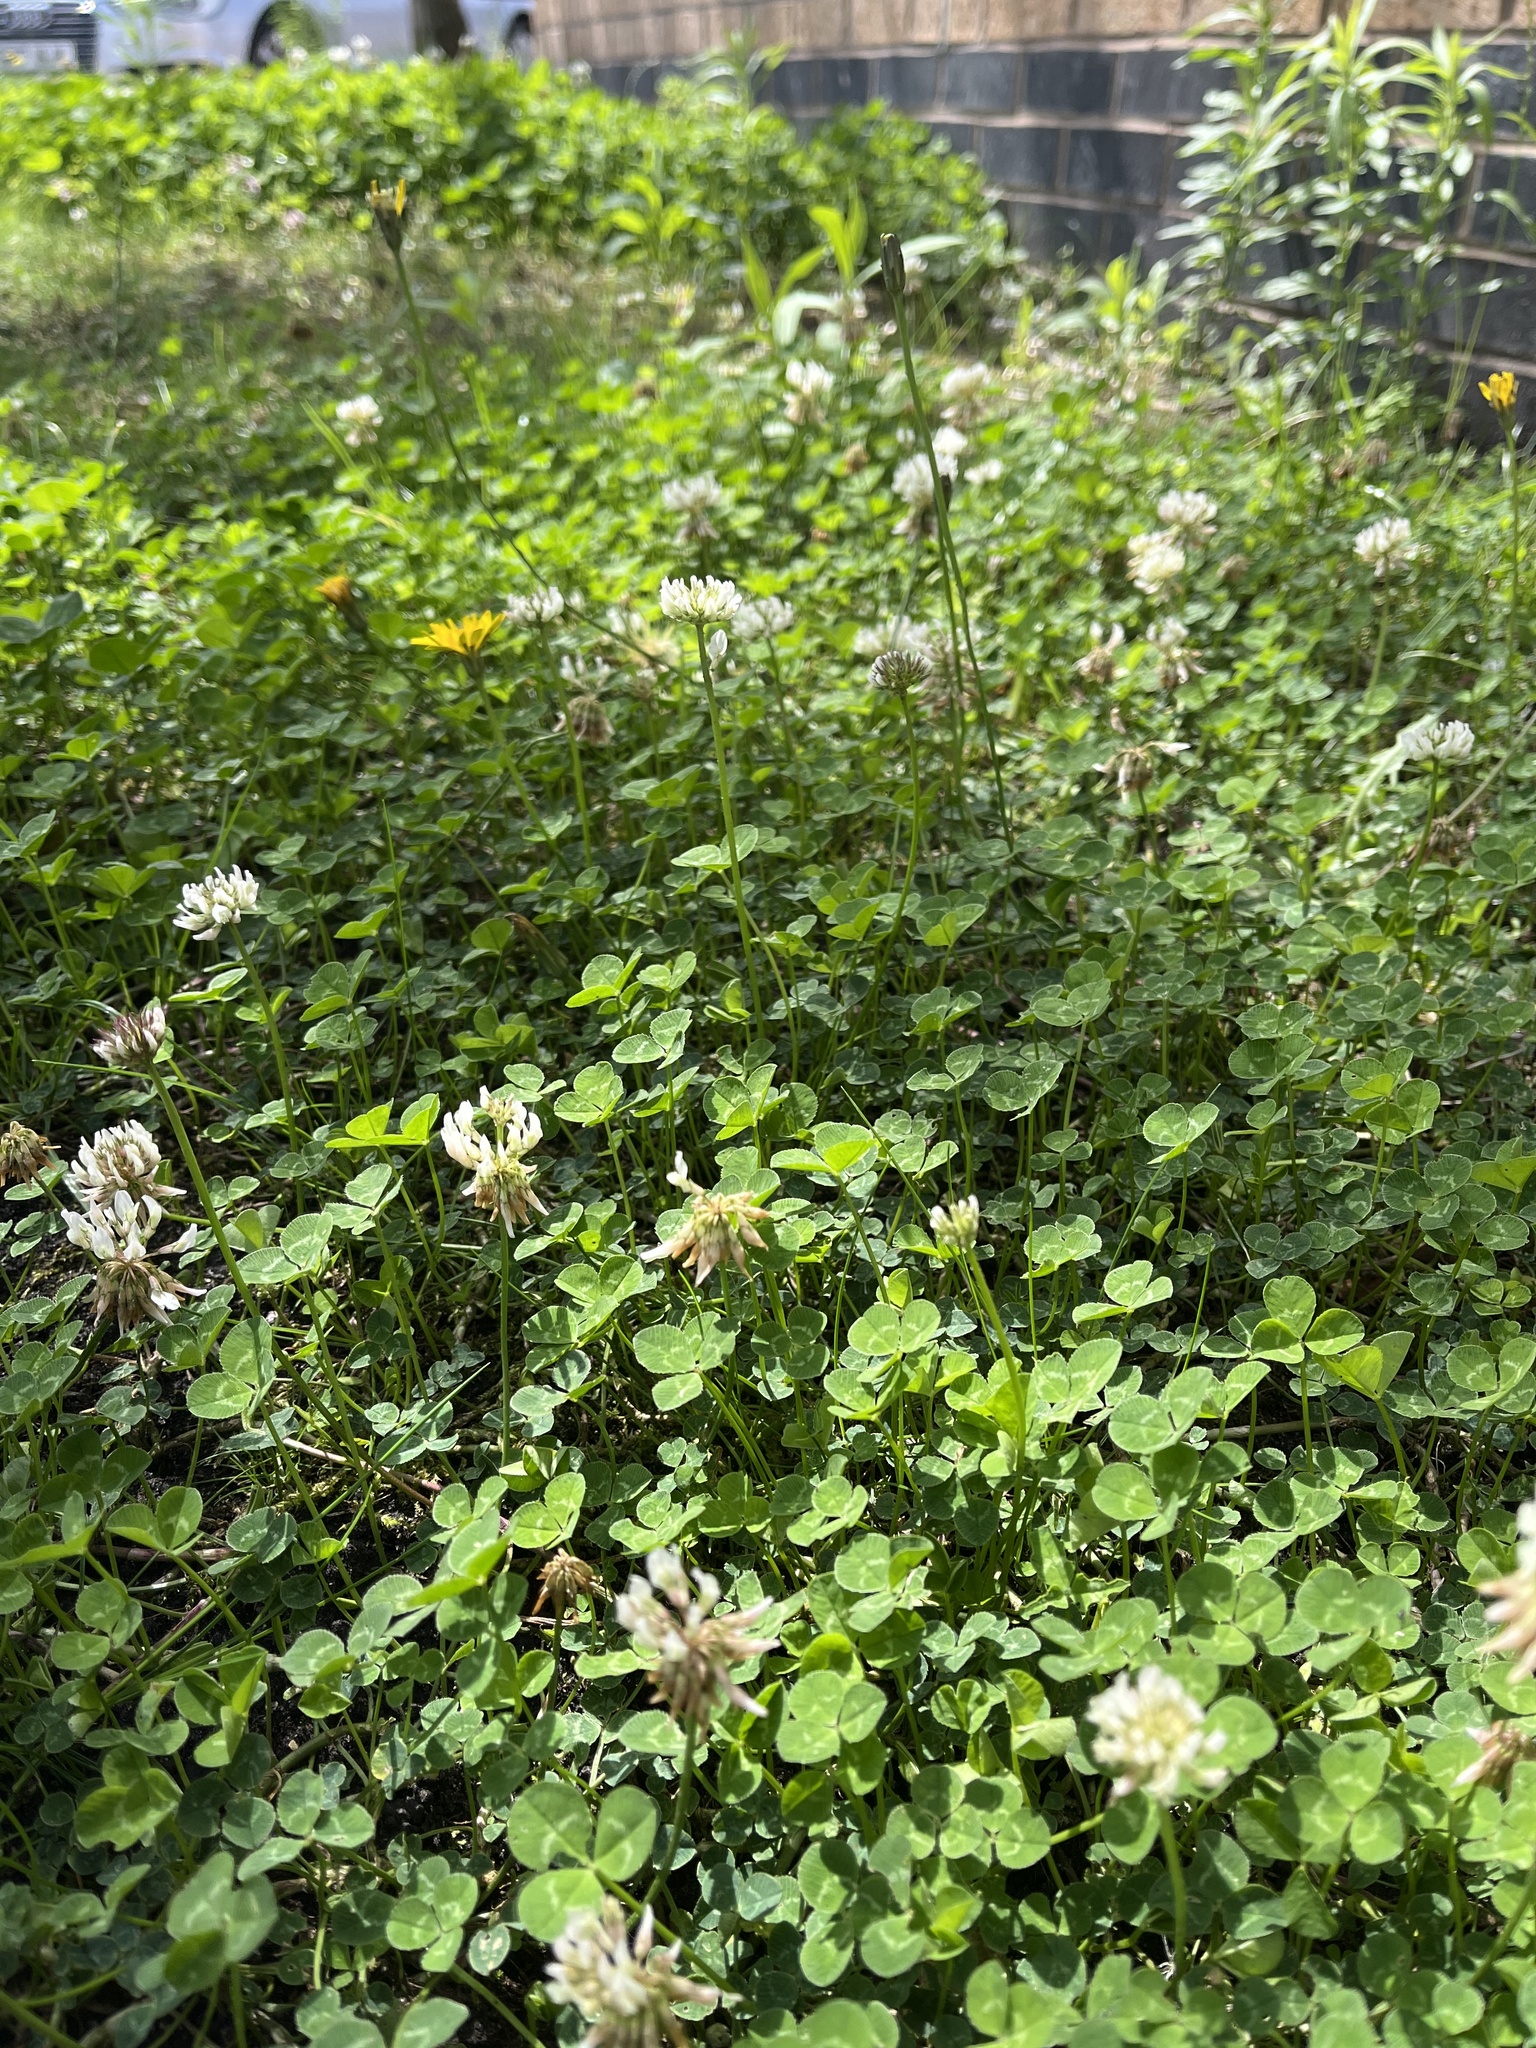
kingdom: Plantae
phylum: Tracheophyta
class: Magnoliopsida
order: Fabales
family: Fabaceae
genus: Trifolium
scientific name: Trifolium repens
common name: White clover
